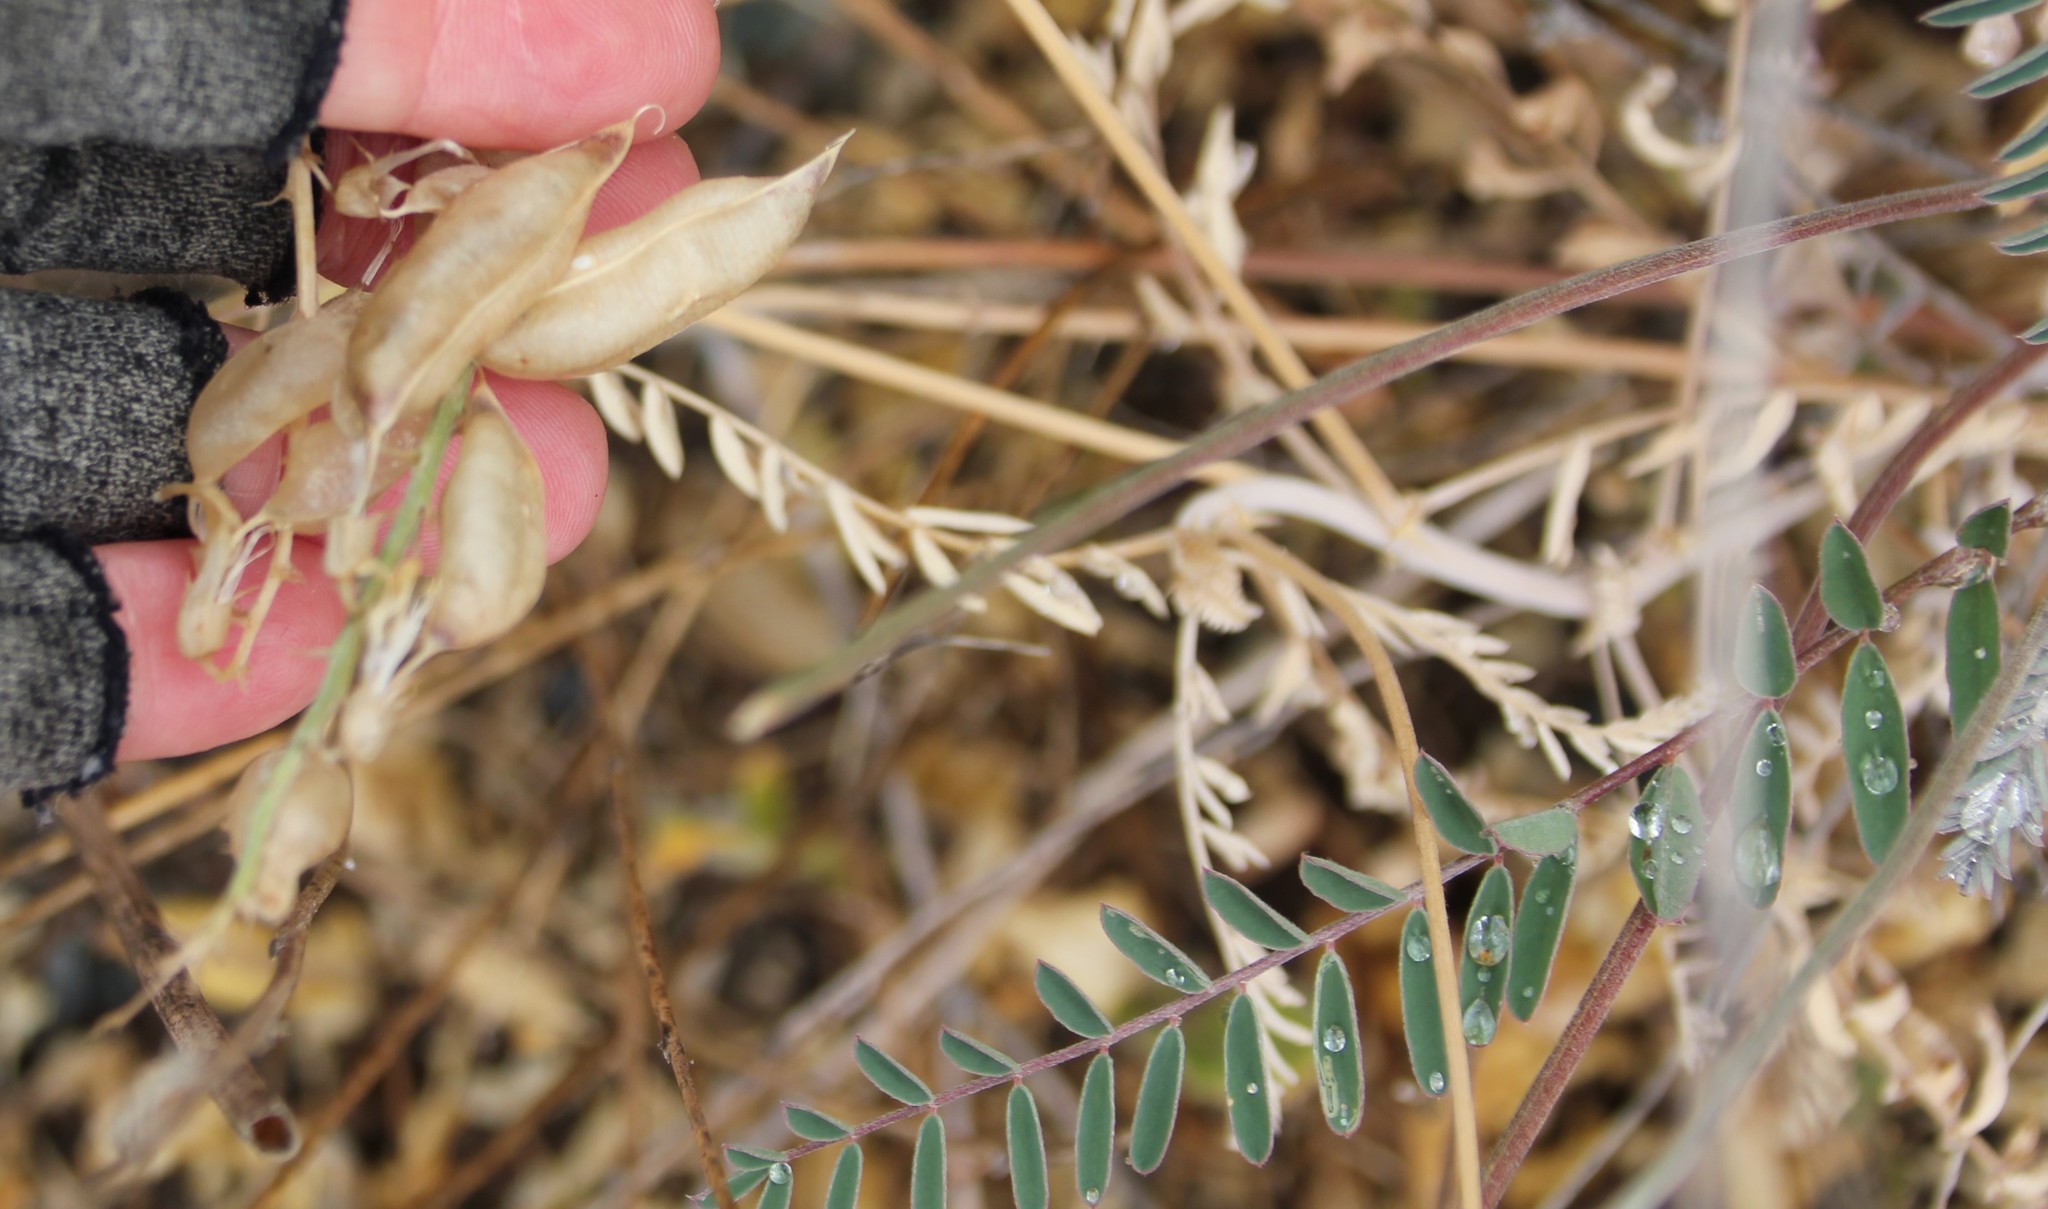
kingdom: Plantae
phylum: Tracheophyta
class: Magnoliopsida
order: Fabales
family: Fabaceae
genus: Astragalus
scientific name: Astragalus trichopodus
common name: Santa barbara milk-vetch
